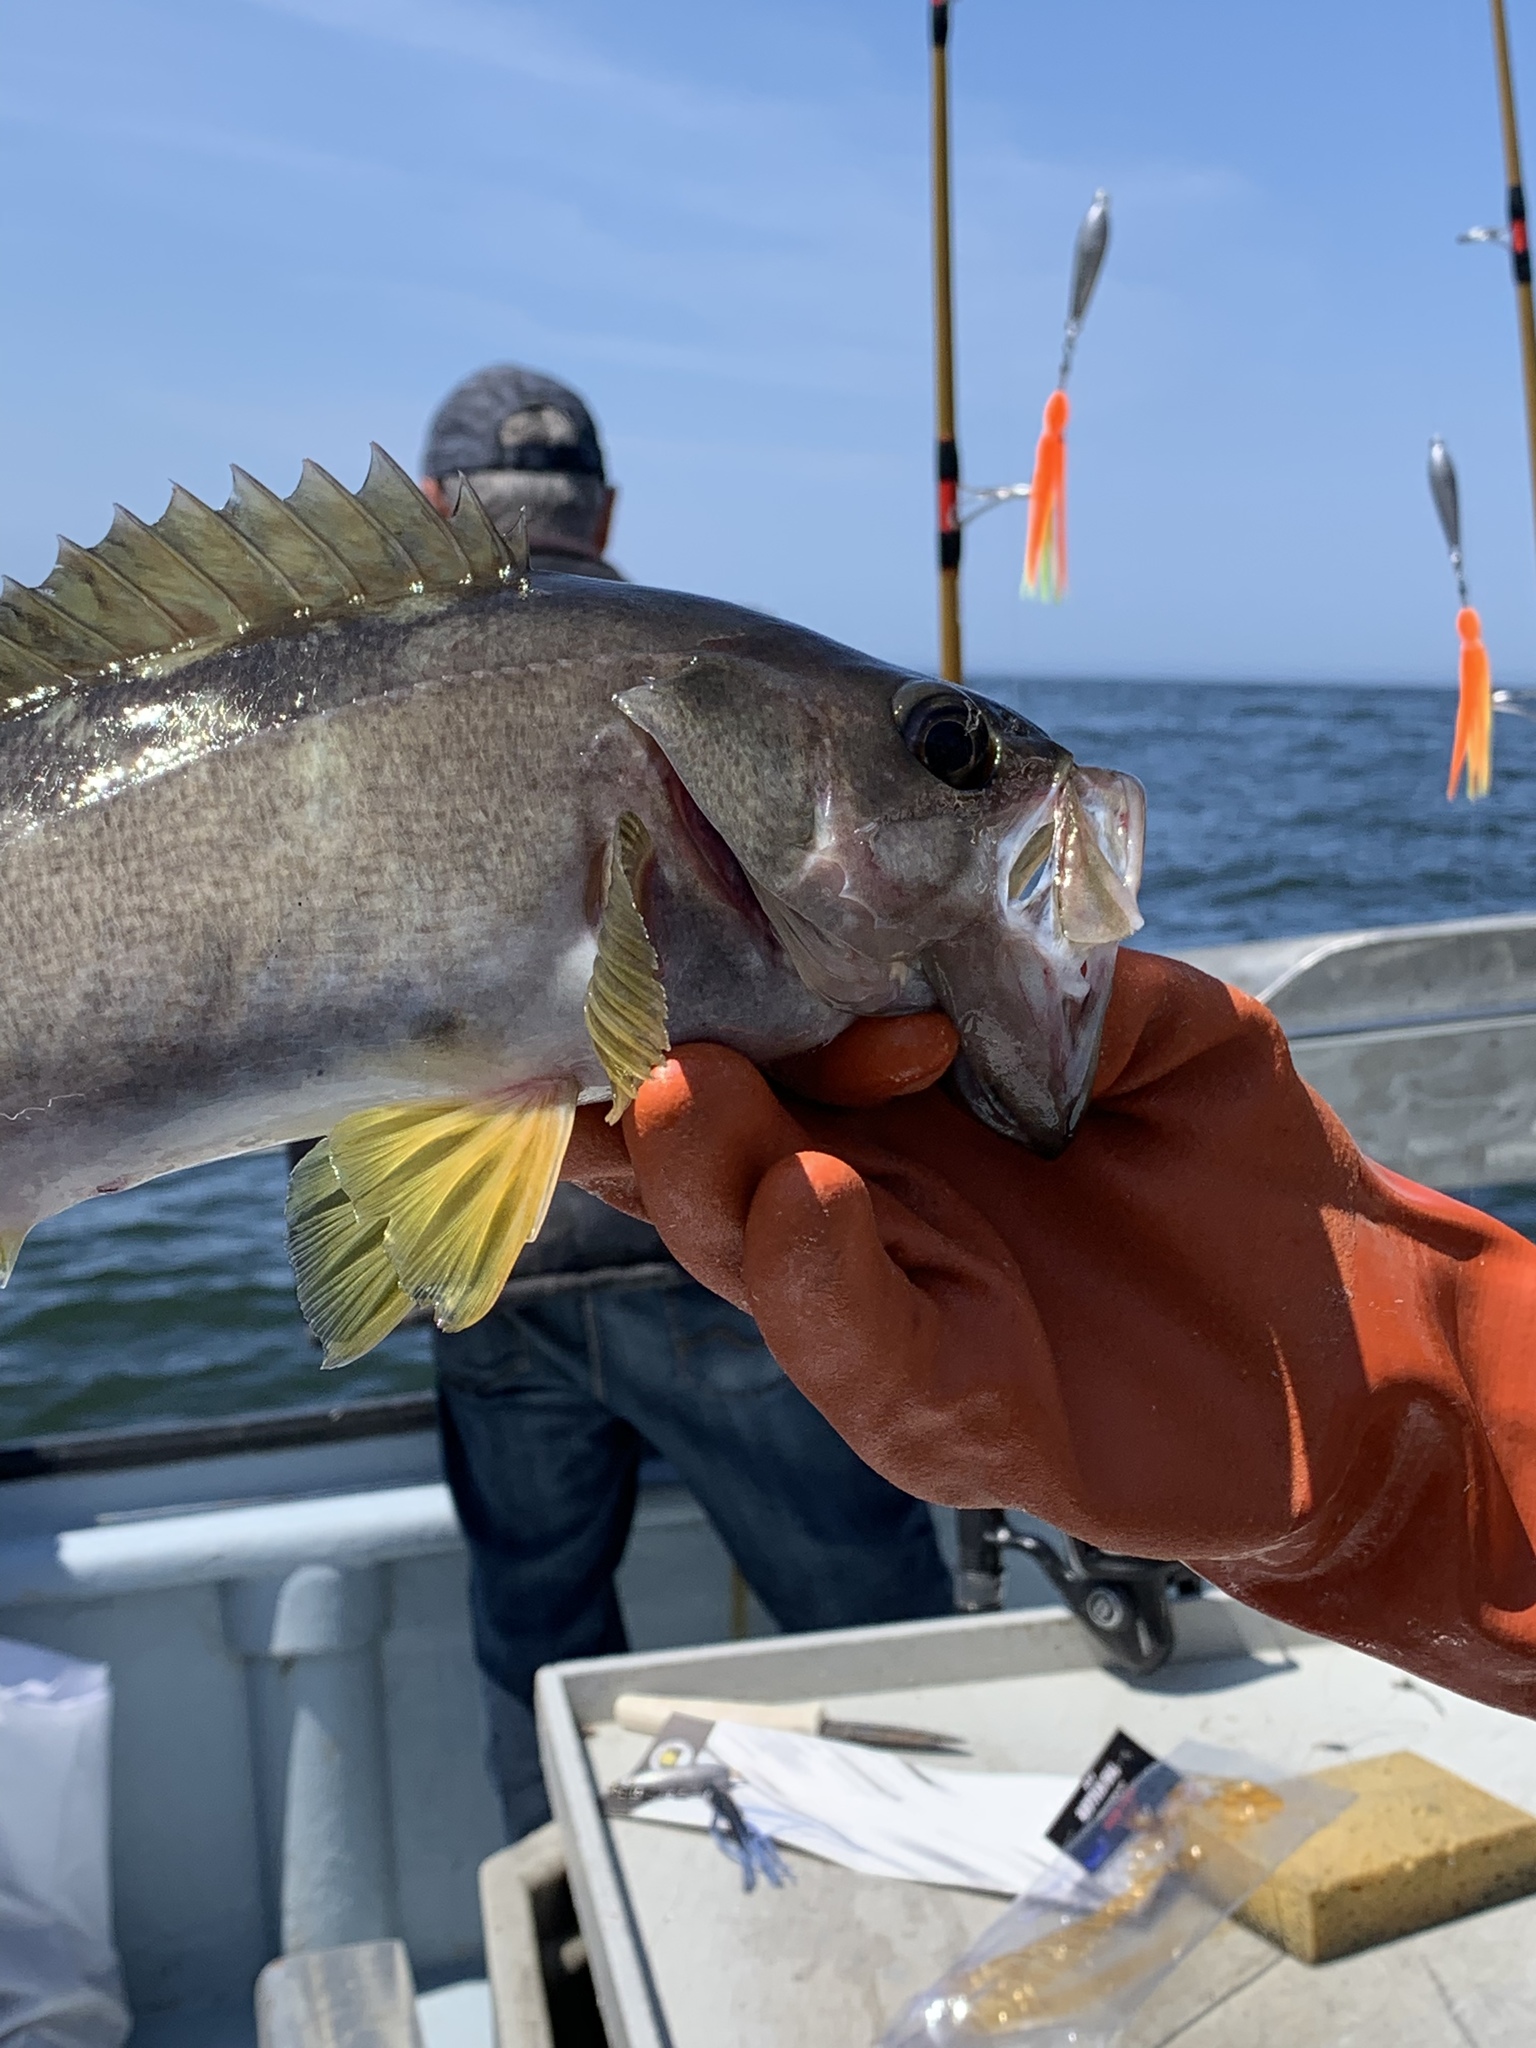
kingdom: Animalia
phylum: Chordata
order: Scorpaeniformes
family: Sebastidae
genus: Sebastes
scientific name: Sebastes flavidus
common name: Yellowtail rockfish
